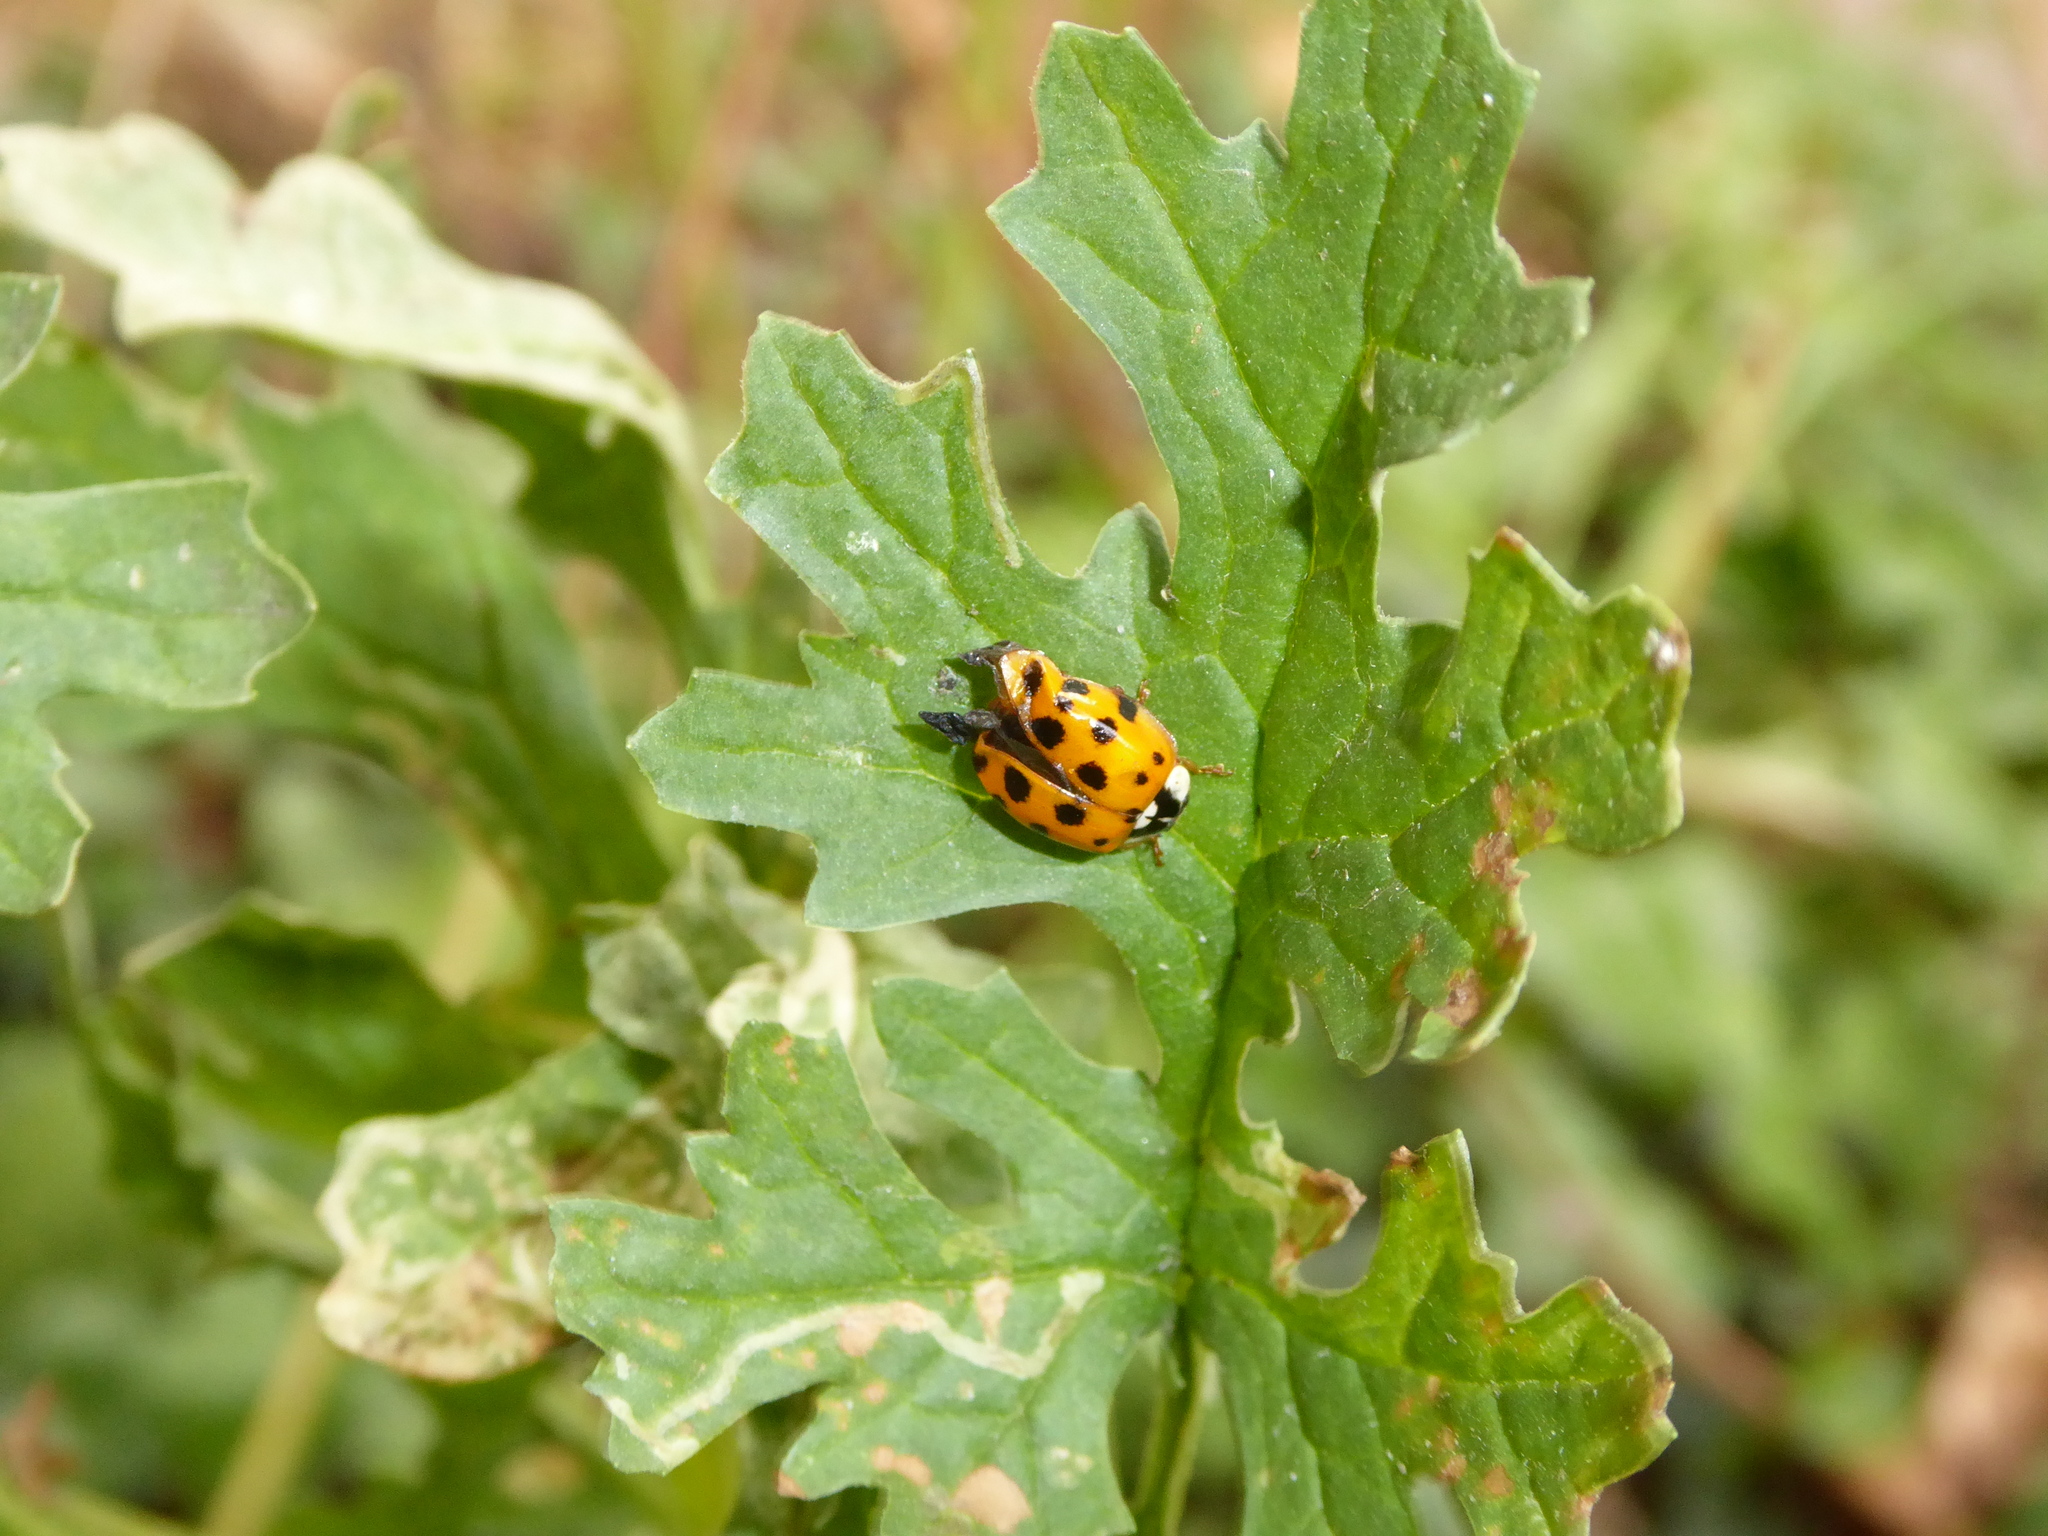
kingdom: Animalia
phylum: Arthropoda
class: Insecta
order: Coleoptera
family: Coccinellidae
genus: Harmonia
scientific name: Harmonia axyridis
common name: Harlequin ladybird
